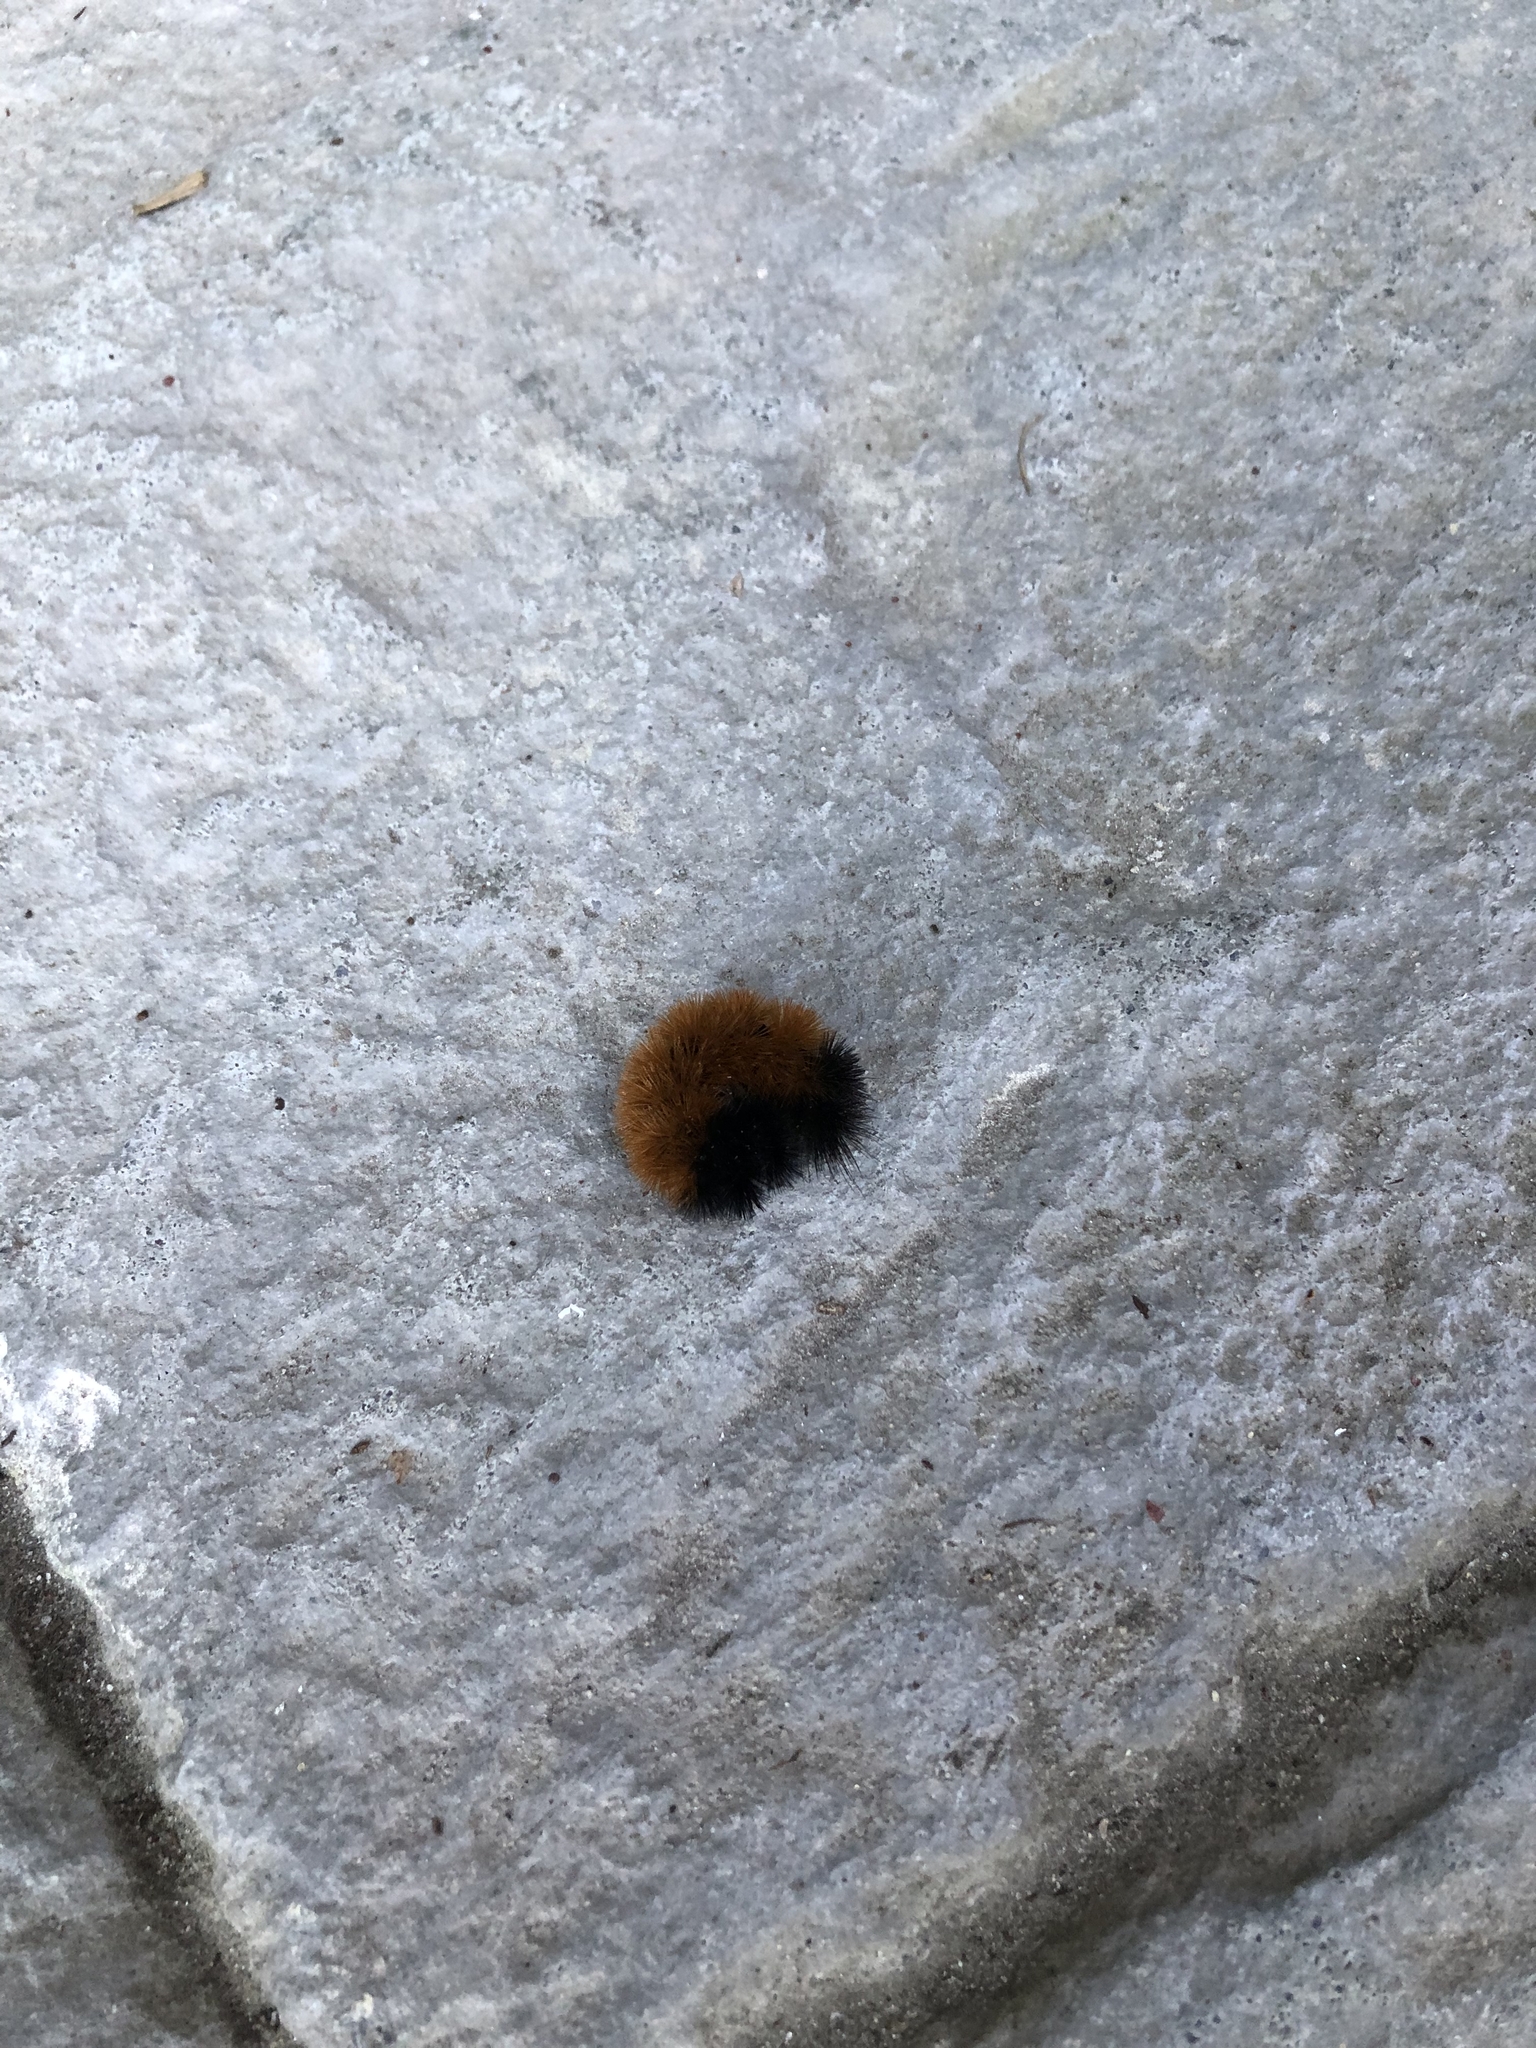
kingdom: Animalia
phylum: Arthropoda
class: Insecta
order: Lepidoptera
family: Erebidae
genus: Pyrrharctia
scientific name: Pyrrharctia isabella
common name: Isabella tiger moth
